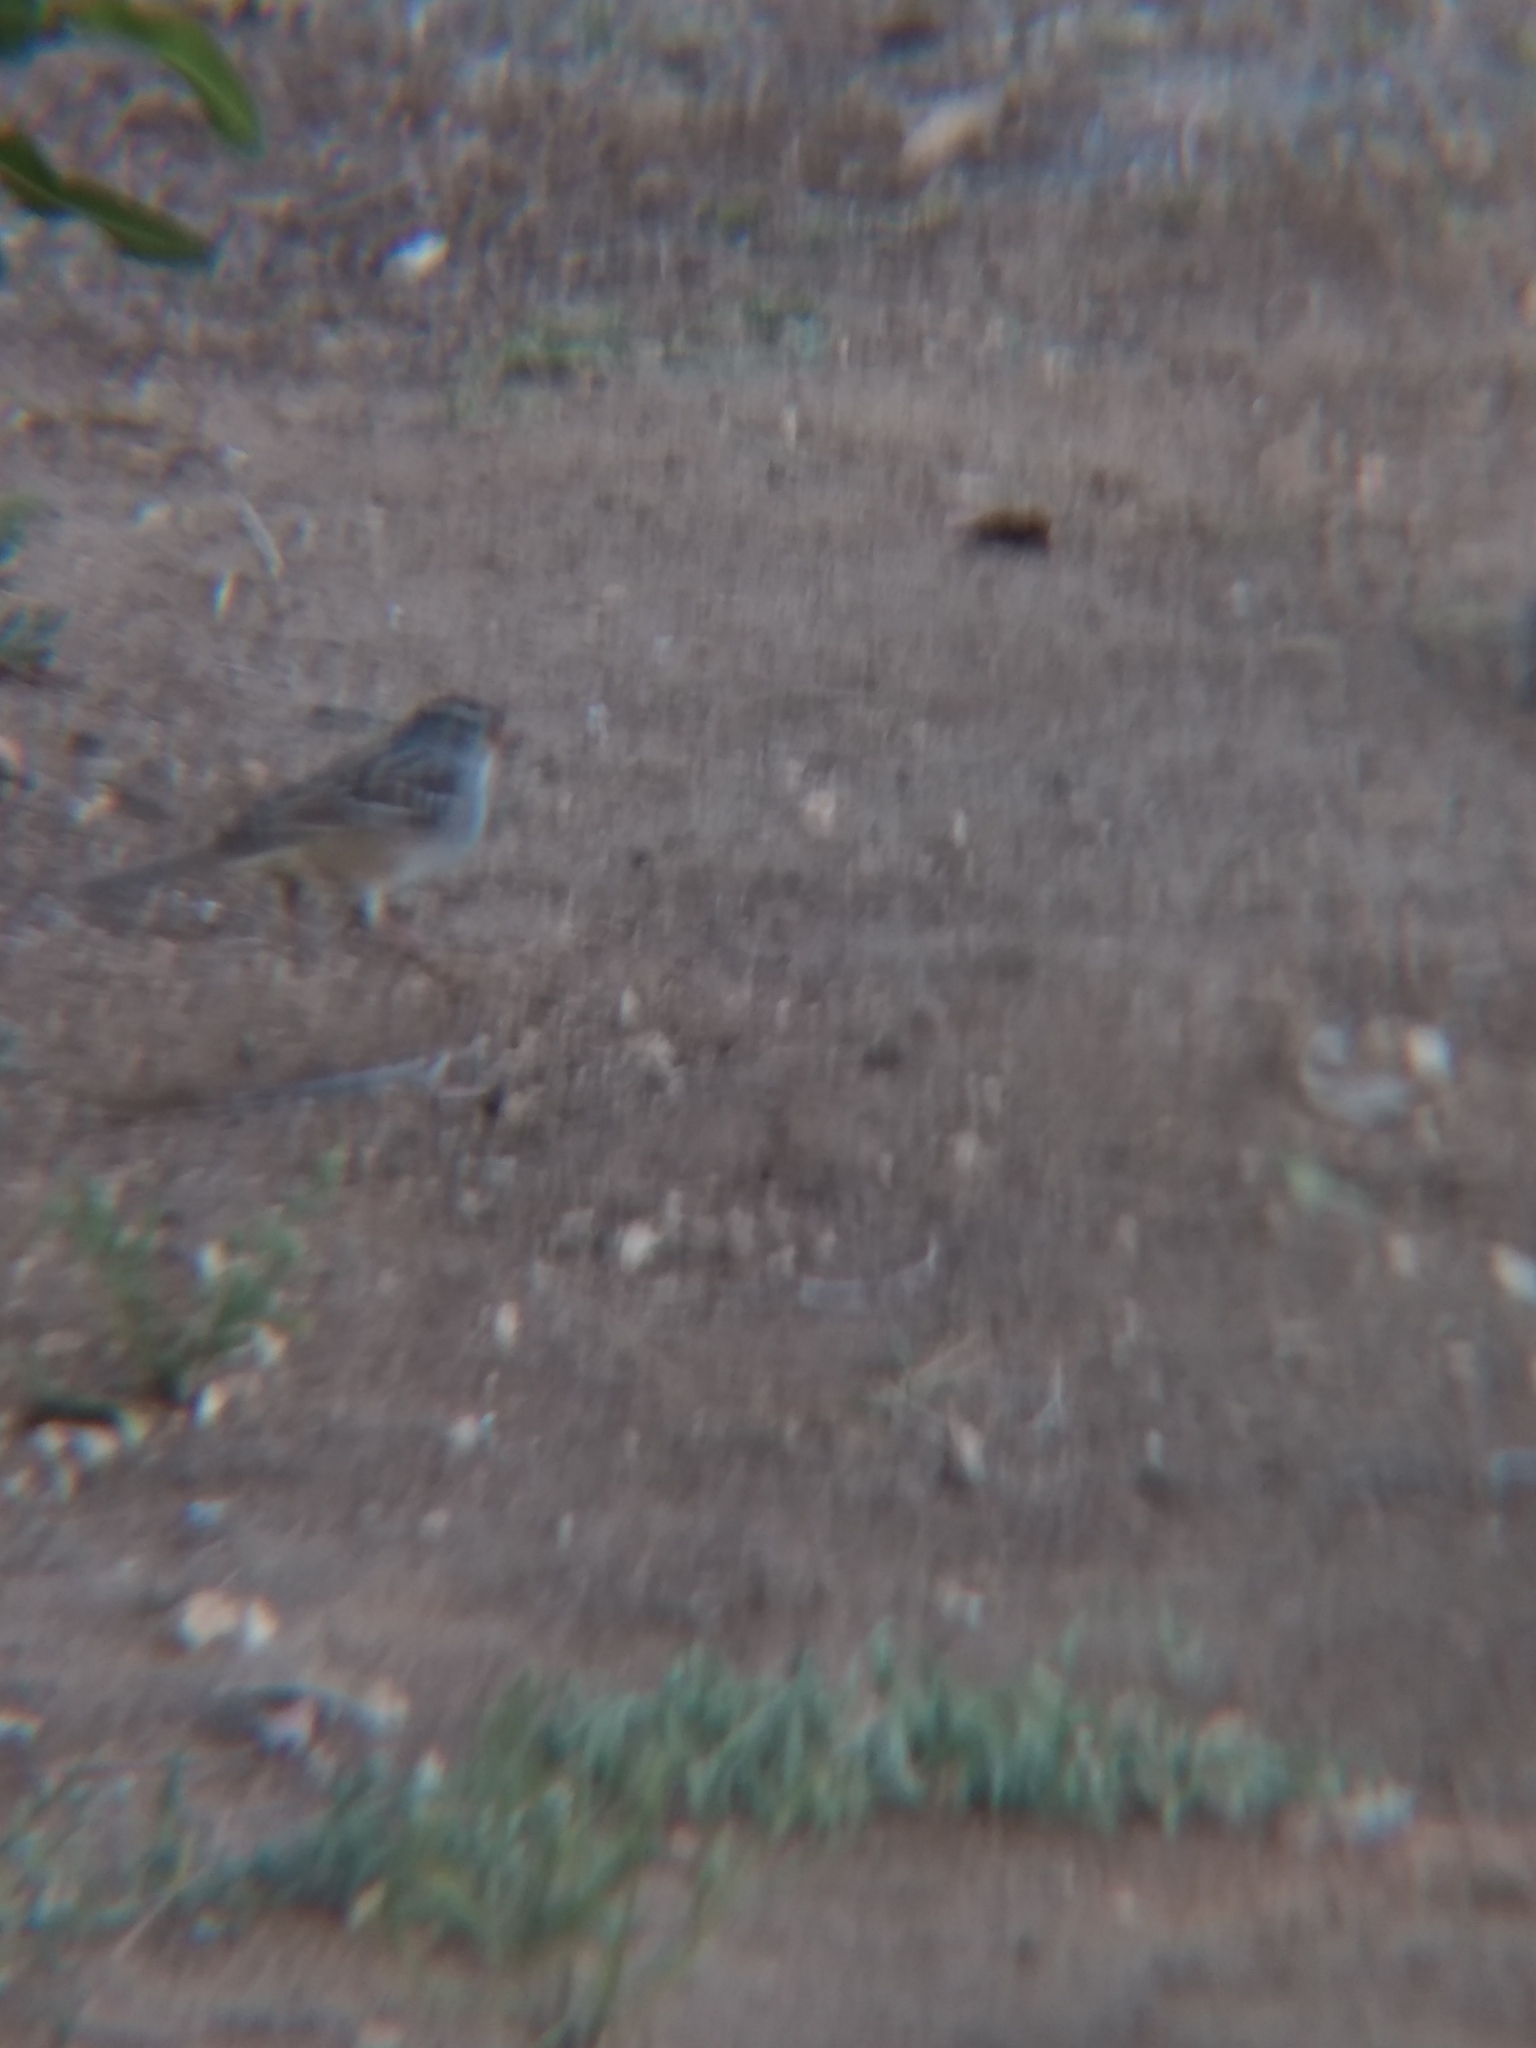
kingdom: Animalia
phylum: Chordata
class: Aves
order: Passeriformes
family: Passerellidae
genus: Zonotrichia
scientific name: Zonotrichia leucophrys
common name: White-crowned sparrow
